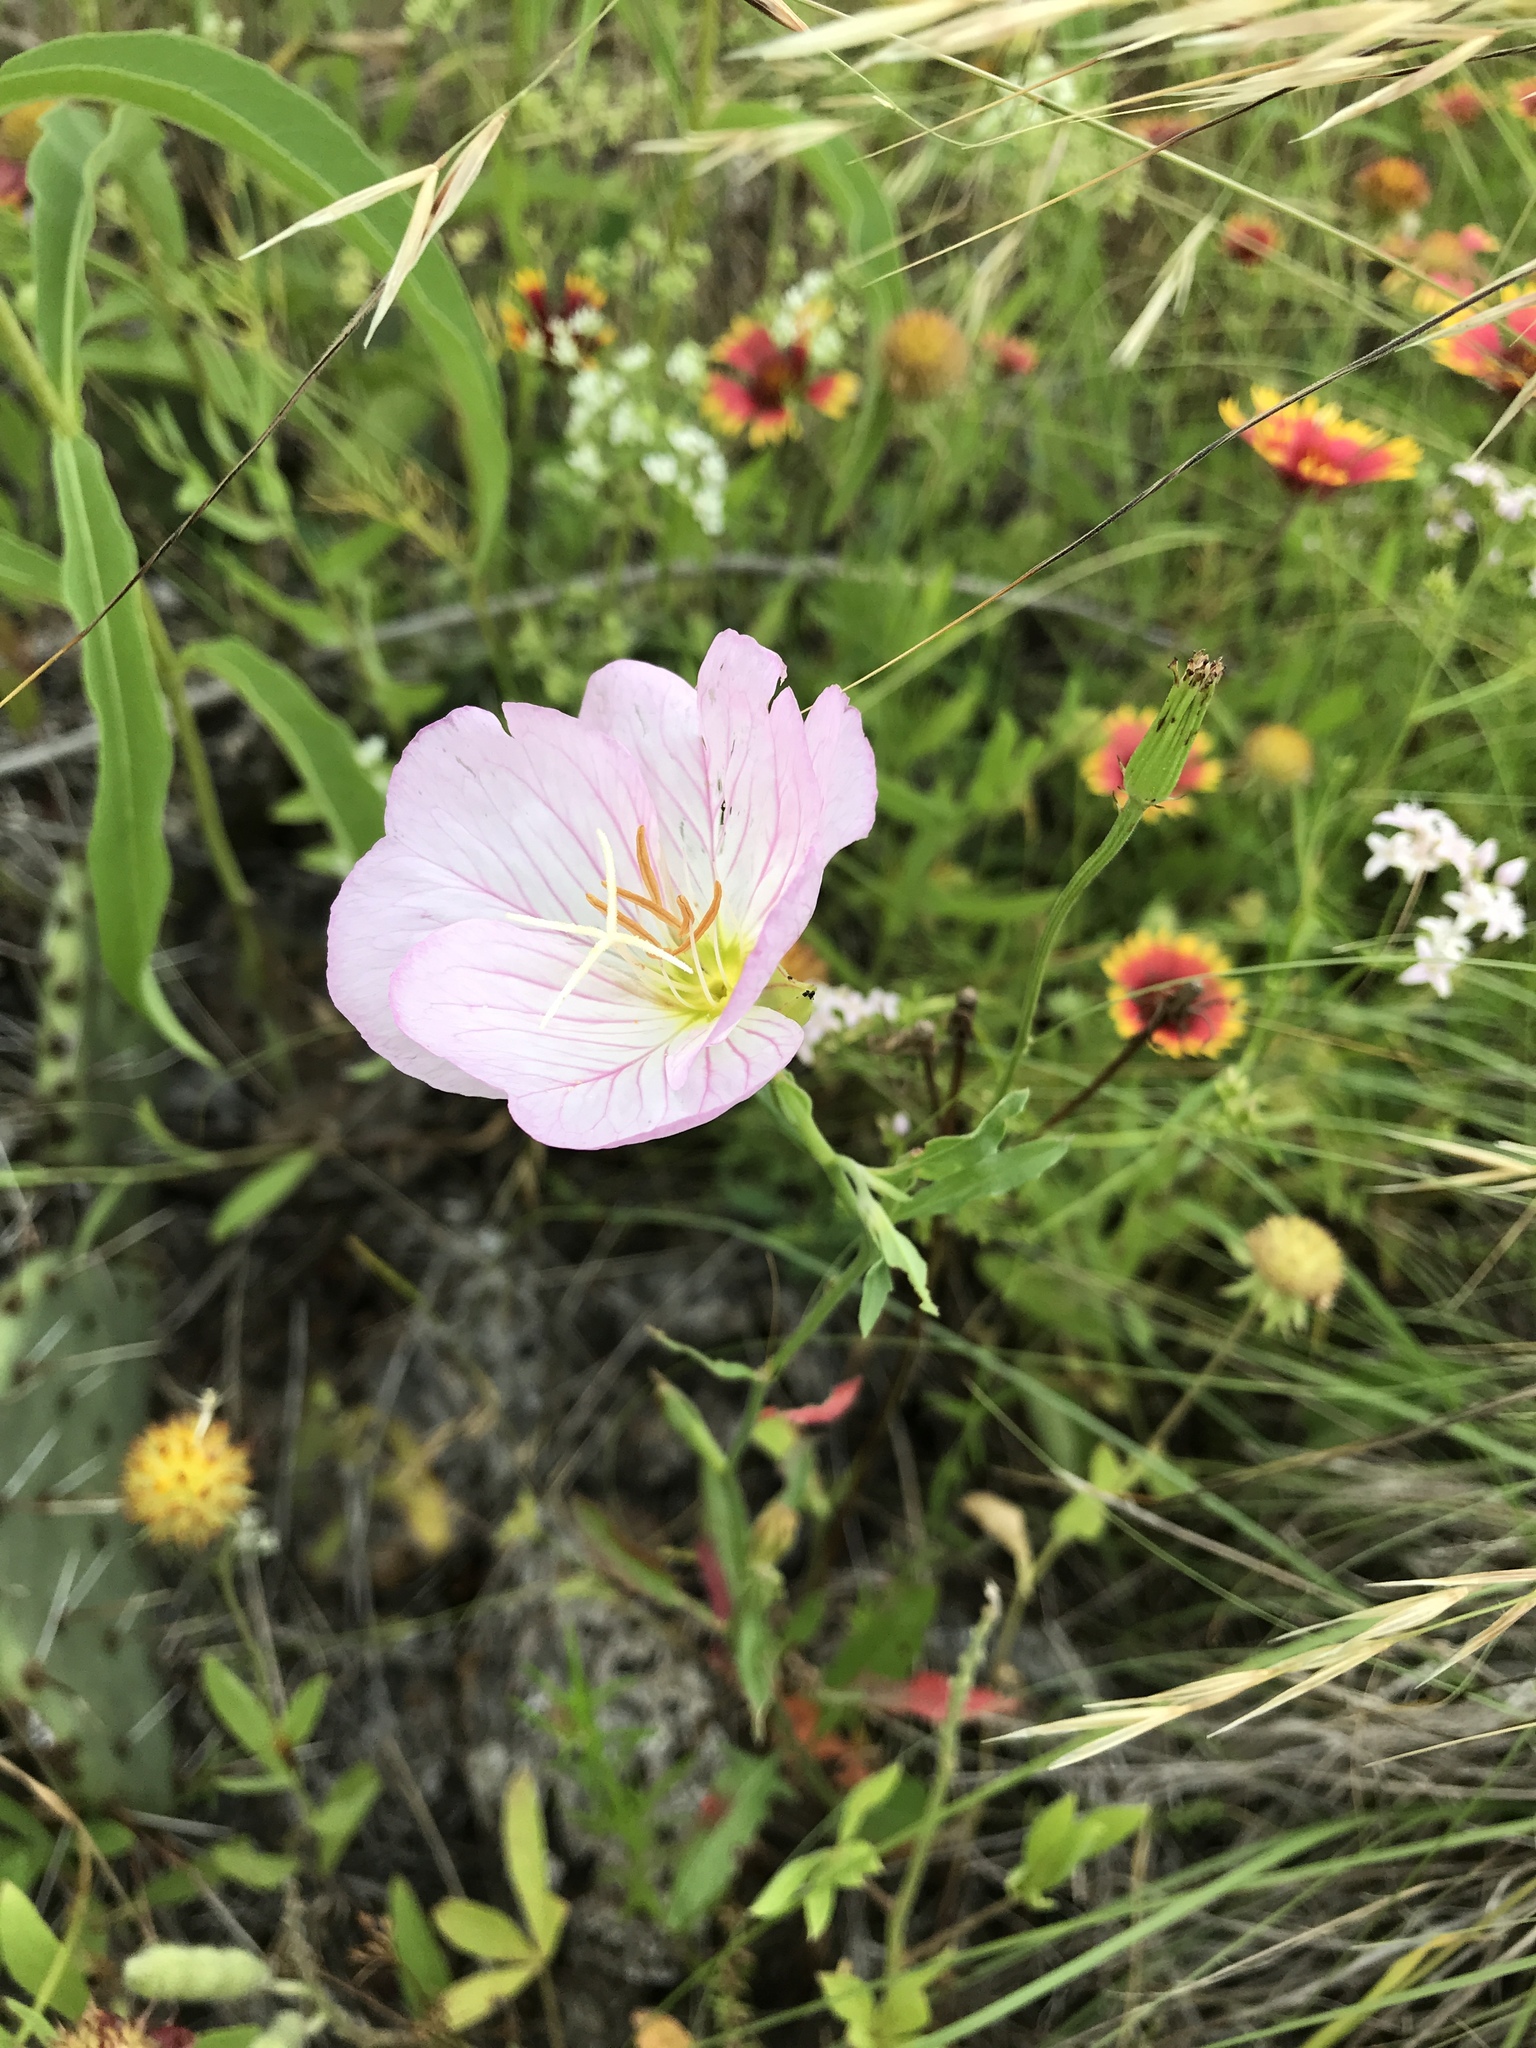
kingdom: Plantae
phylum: Tracheophyta
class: Magnoliopsida
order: Myrtales
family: Onagraceae
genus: Oenothera
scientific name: Oenothera speciosa
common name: White evening-primrose
